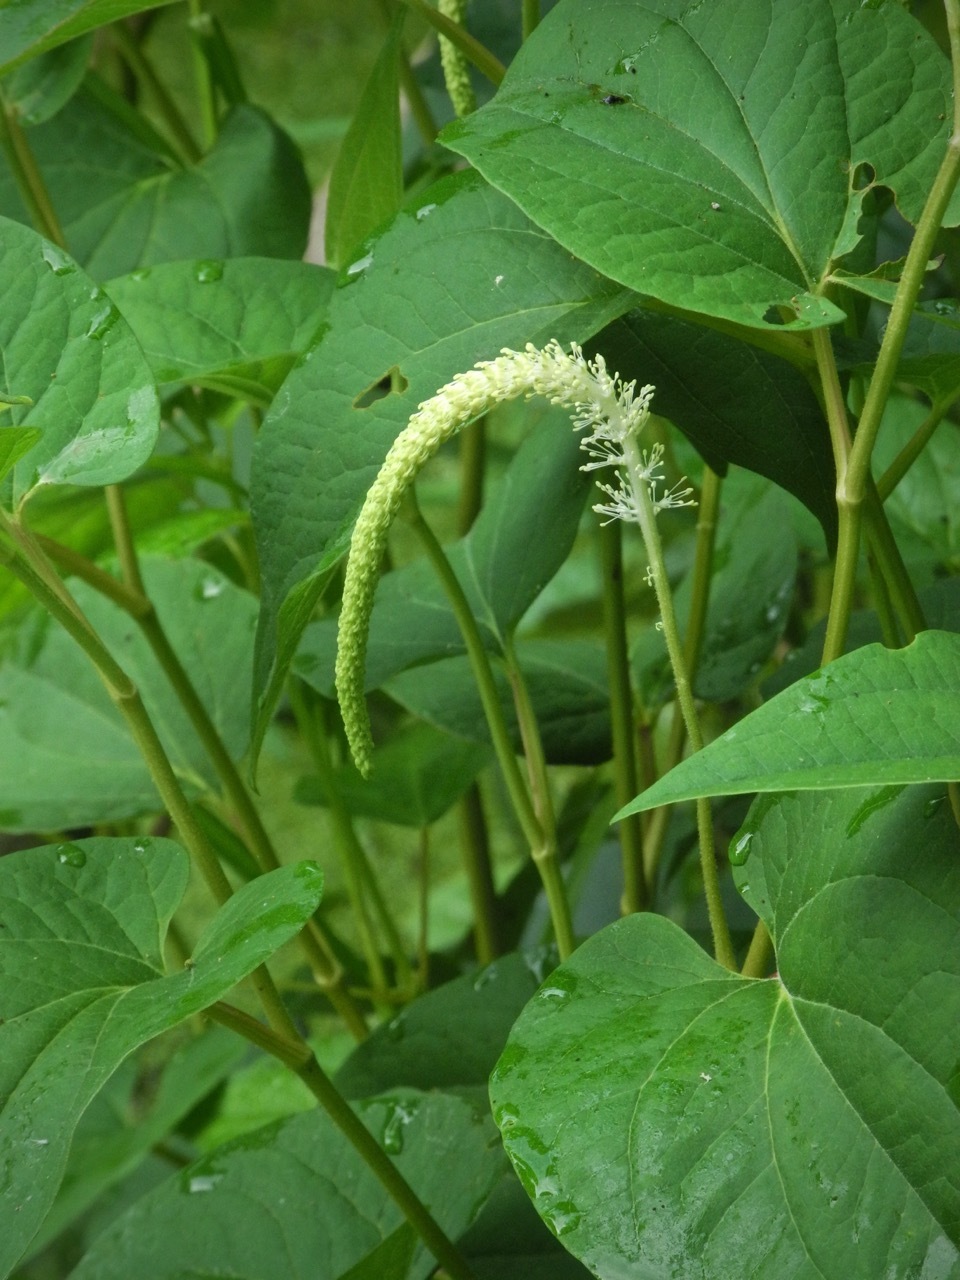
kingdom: Plantae
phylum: Tracheophyta
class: Magnoliopsida
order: Piperales
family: Saururaceae
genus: Saururus
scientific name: Saururus cernuus
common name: Lizard's-tail
